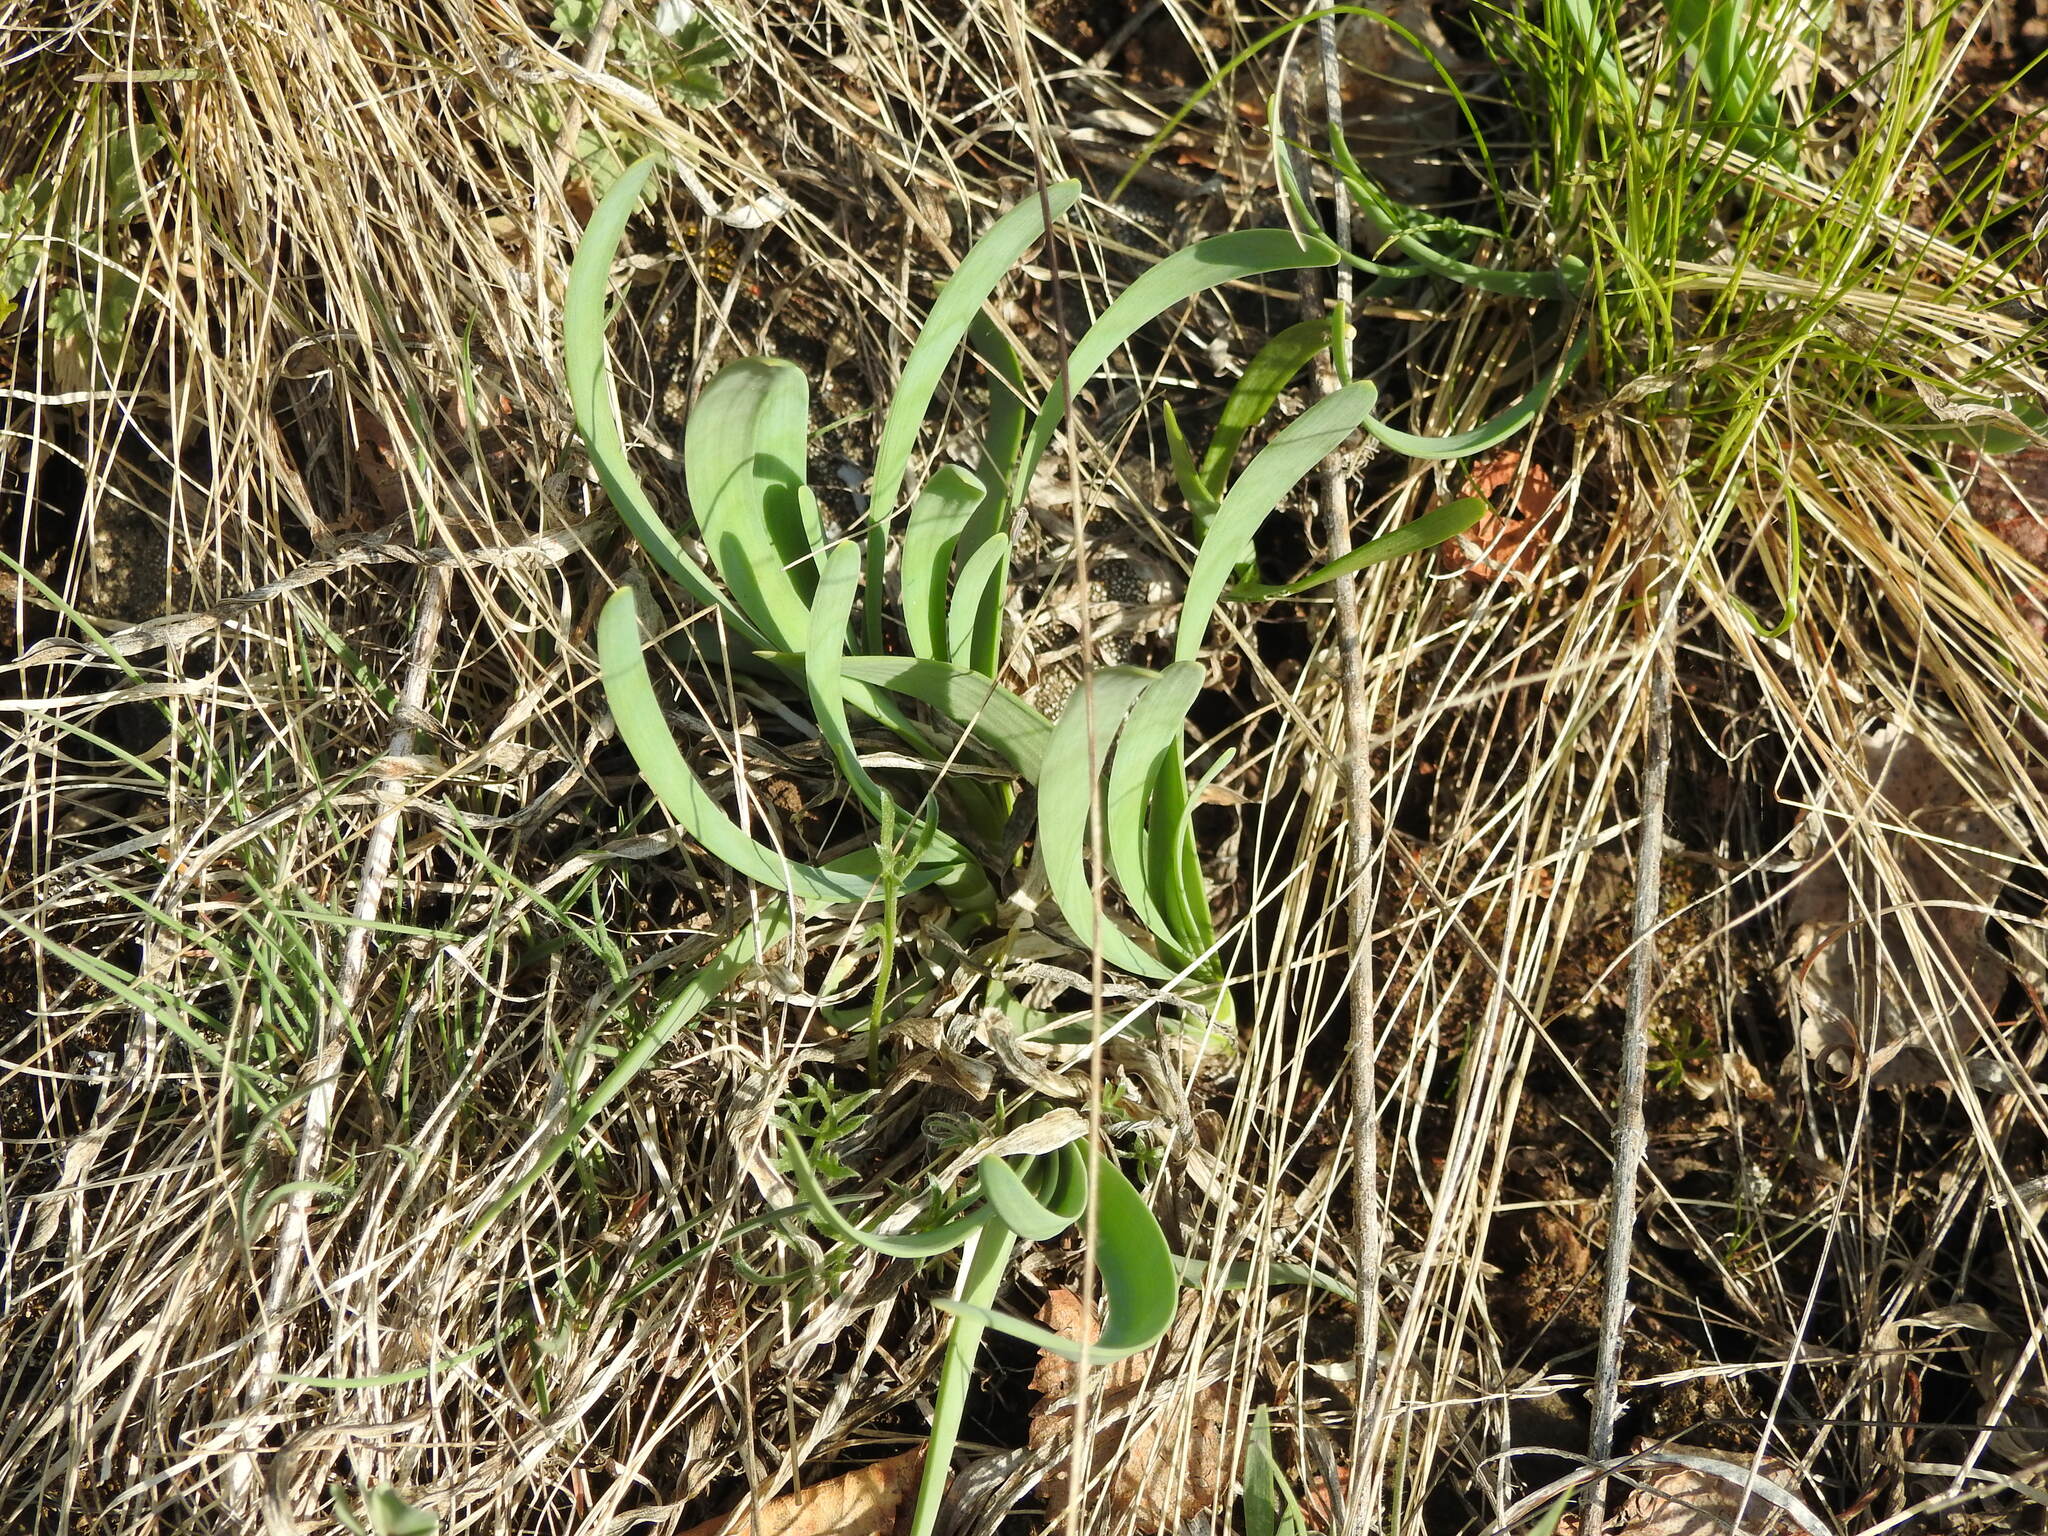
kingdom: Plantae
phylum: Tracheophyta
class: Liliopsida
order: Asparagales
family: Amaryllidaceae
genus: Allium
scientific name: Allium senescens
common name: German garlic
